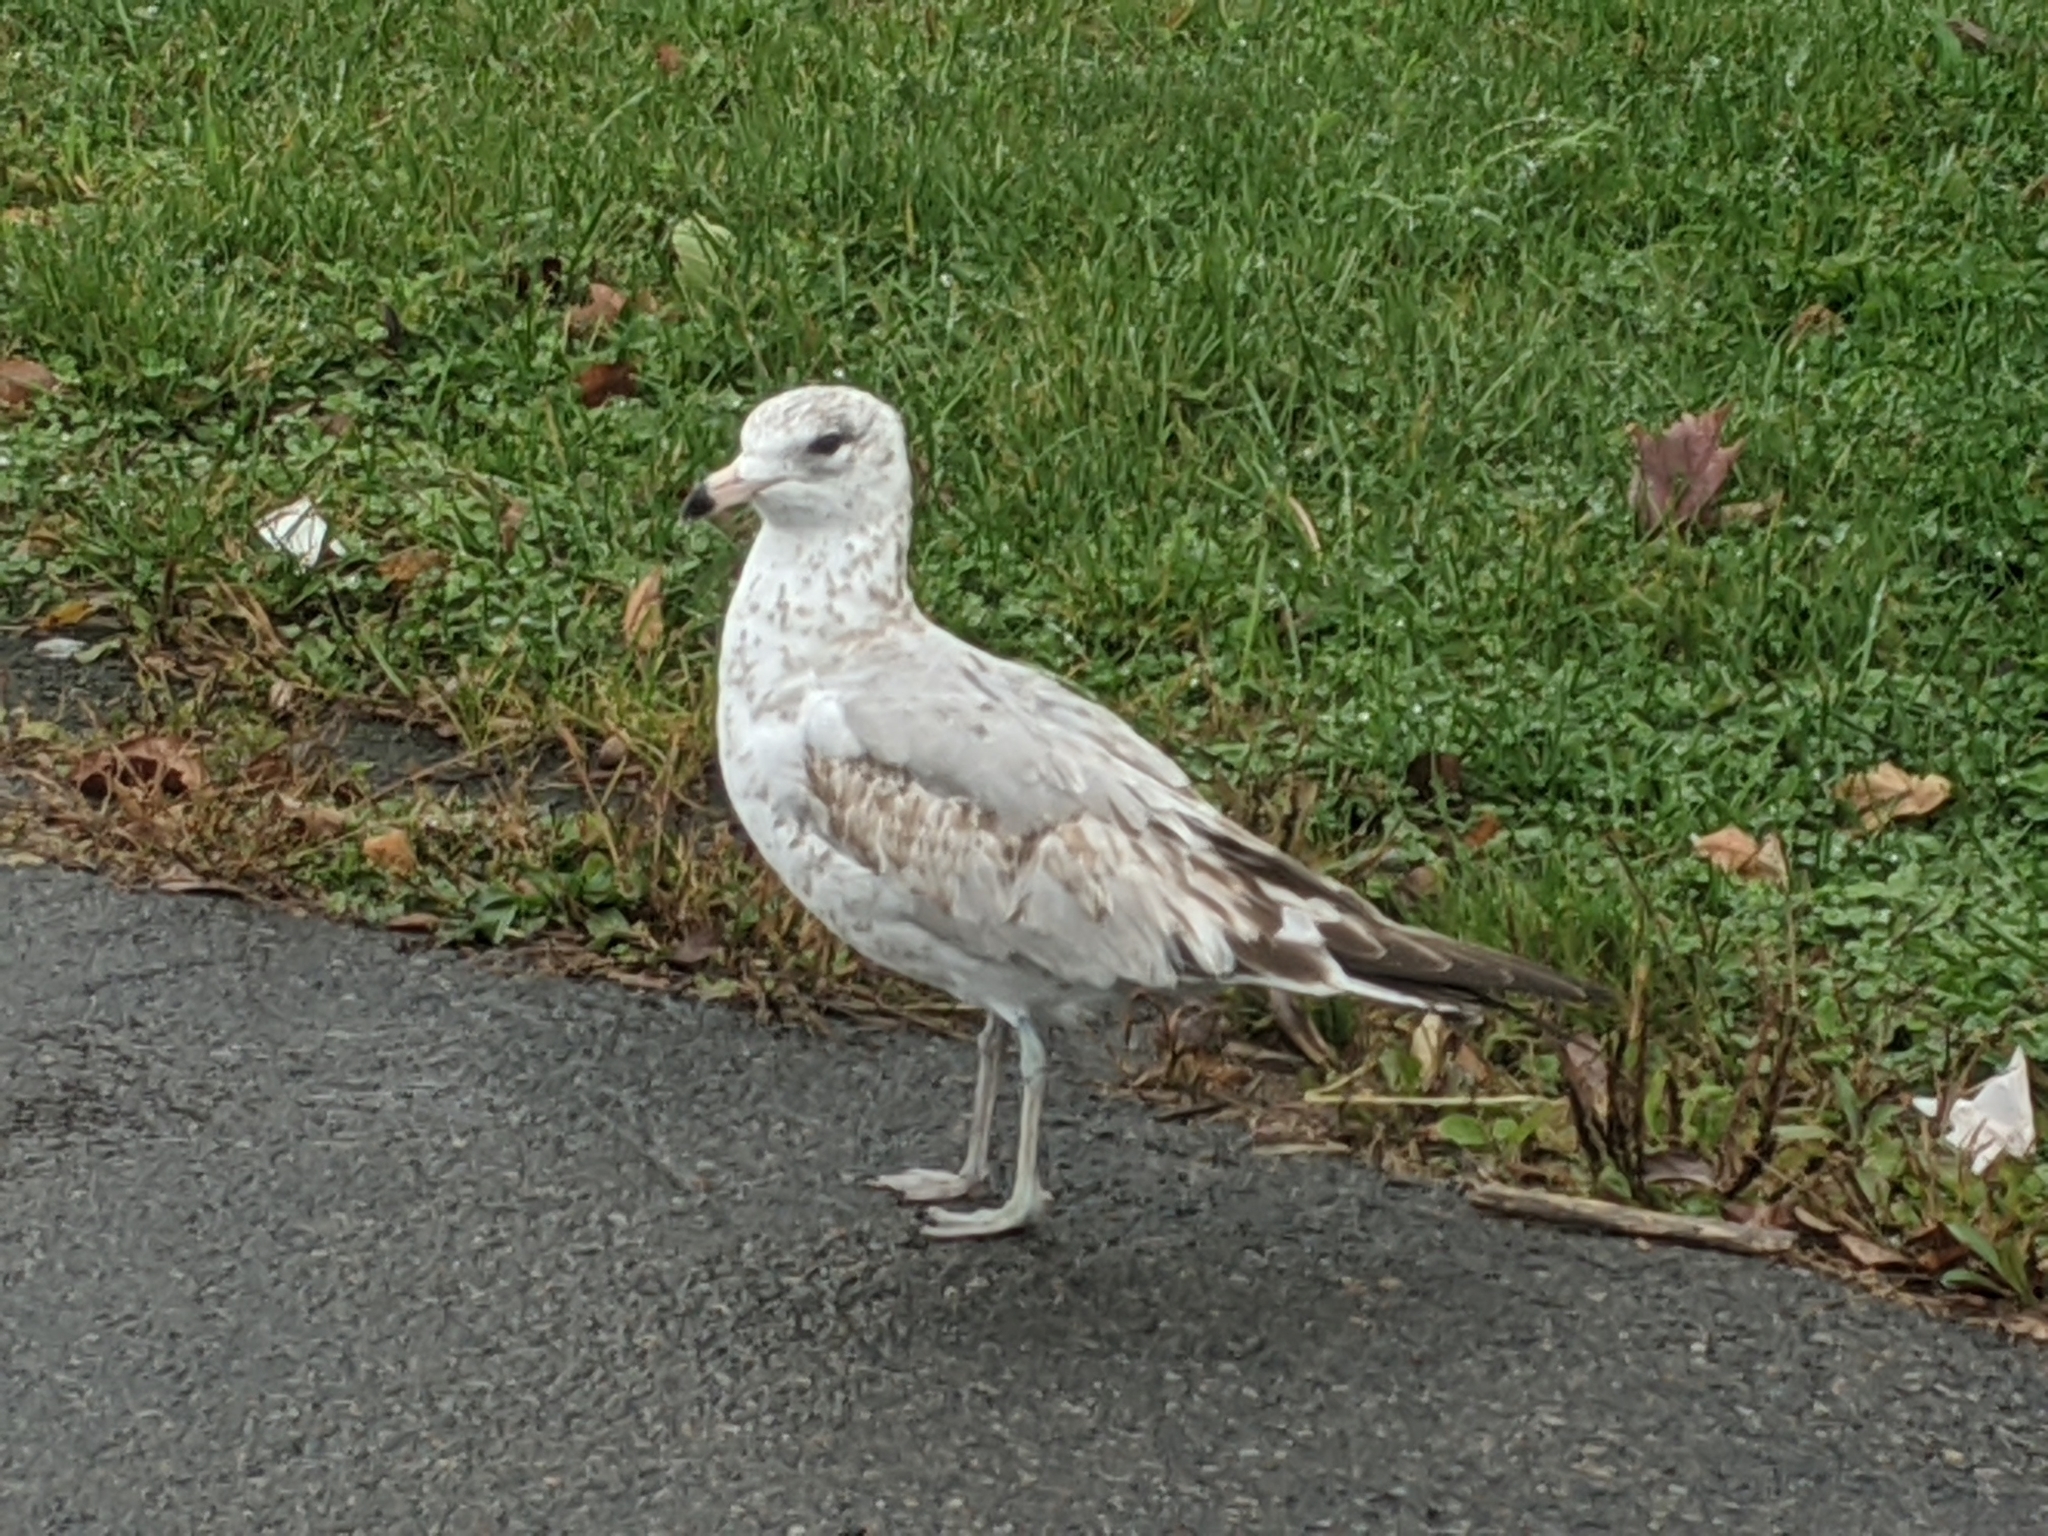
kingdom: Animalia
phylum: Chordata
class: Aves
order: Charadriiformes
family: Laridae
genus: Larus
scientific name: Larus delawarensis
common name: Ring-billed gull
